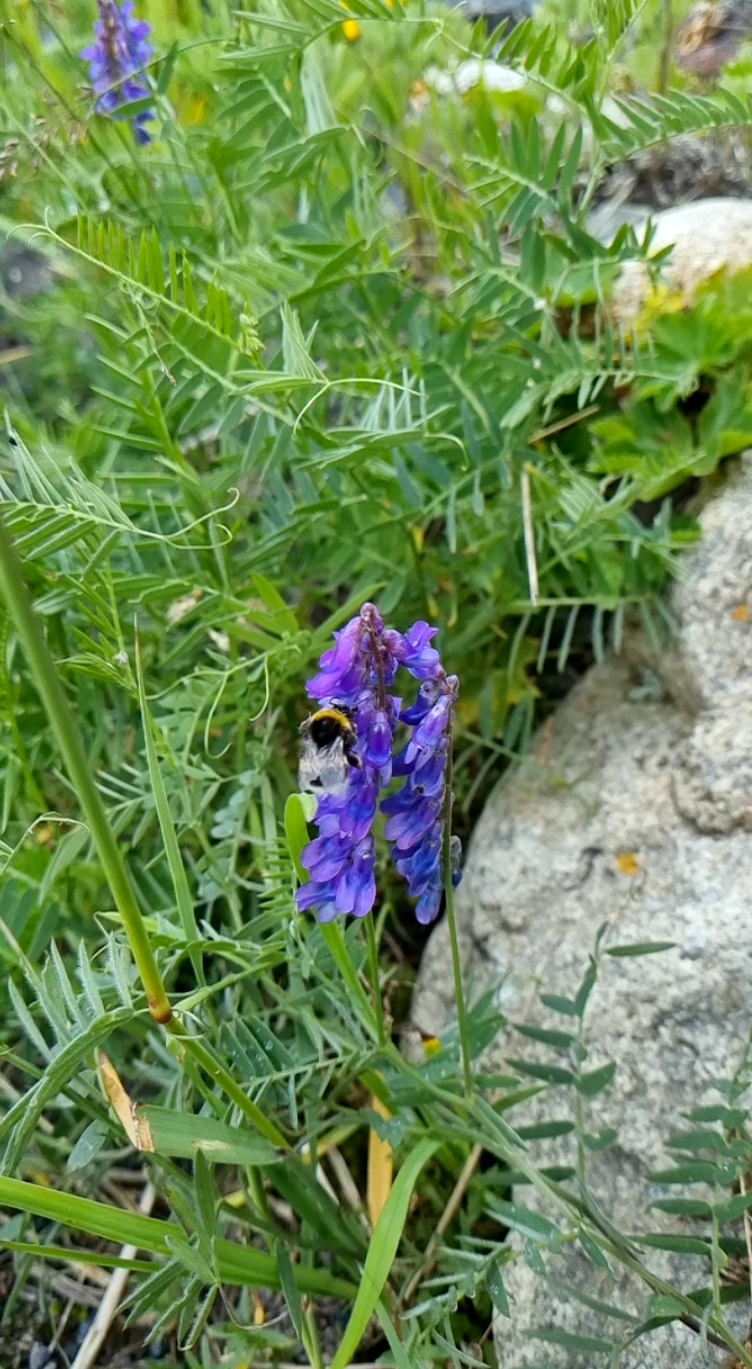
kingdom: Plantae
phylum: Tracheophyta
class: Magnoliopsida
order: Fabales
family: Fabaceae
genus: Vicia
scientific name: Vicia cracca
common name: Bird vetch
